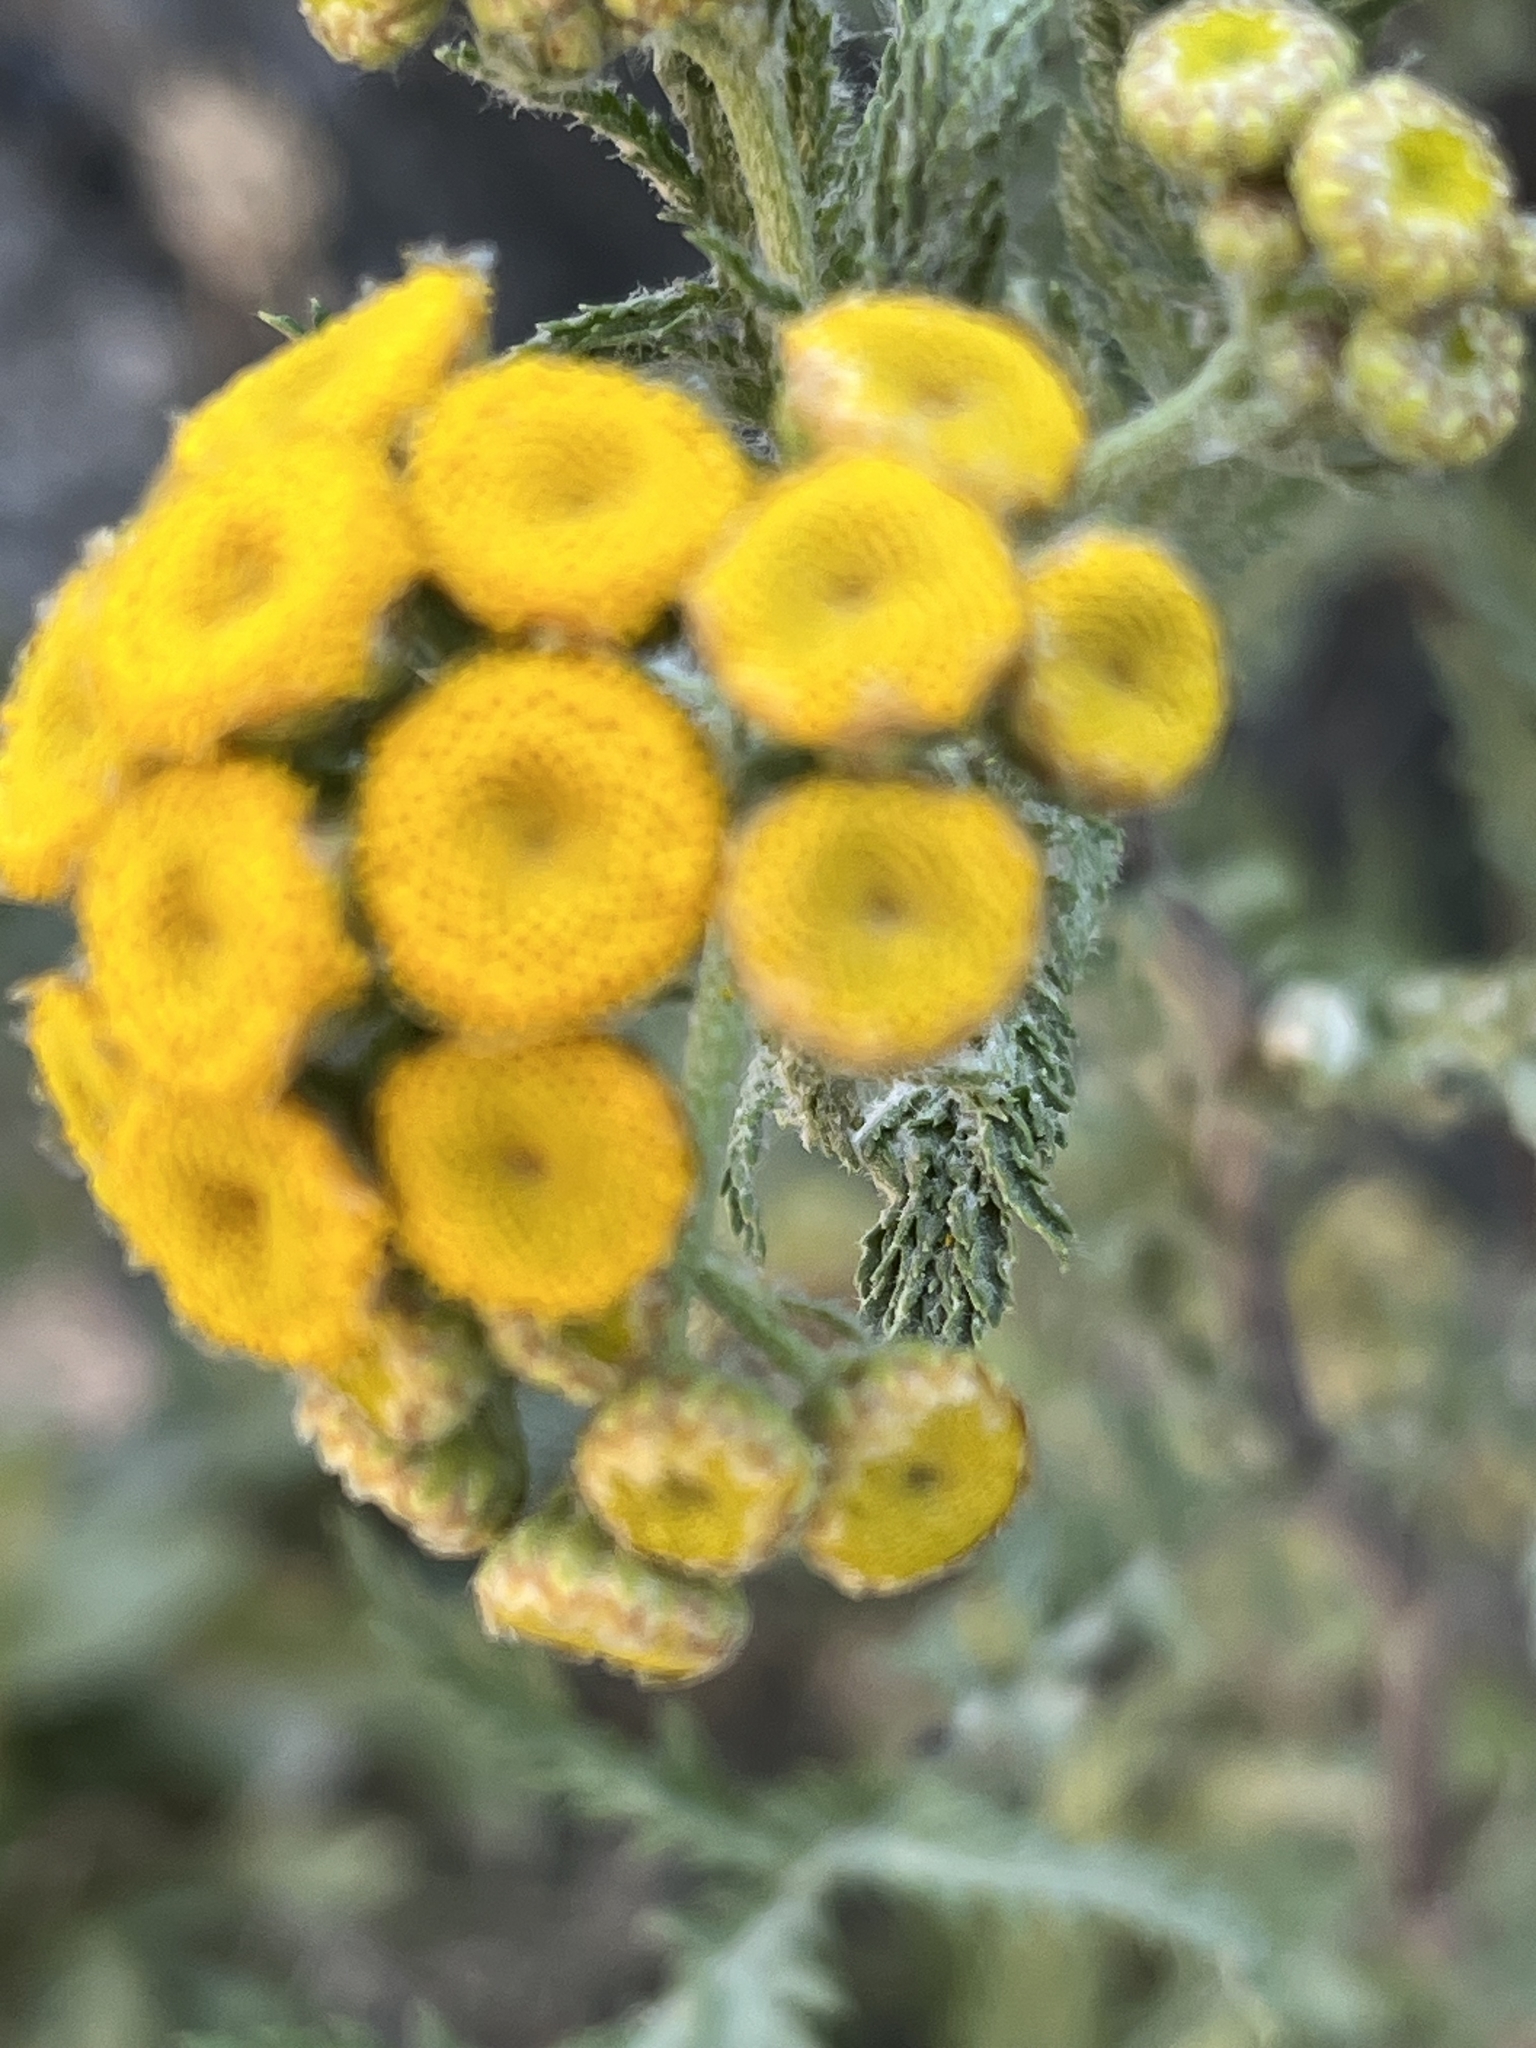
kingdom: Plantae
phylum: Tracheophyta
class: Magnoliopsida
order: Asterales
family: Asteraceae
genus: Tanacetum
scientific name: Tanacetum vulgare
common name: Common tansy
